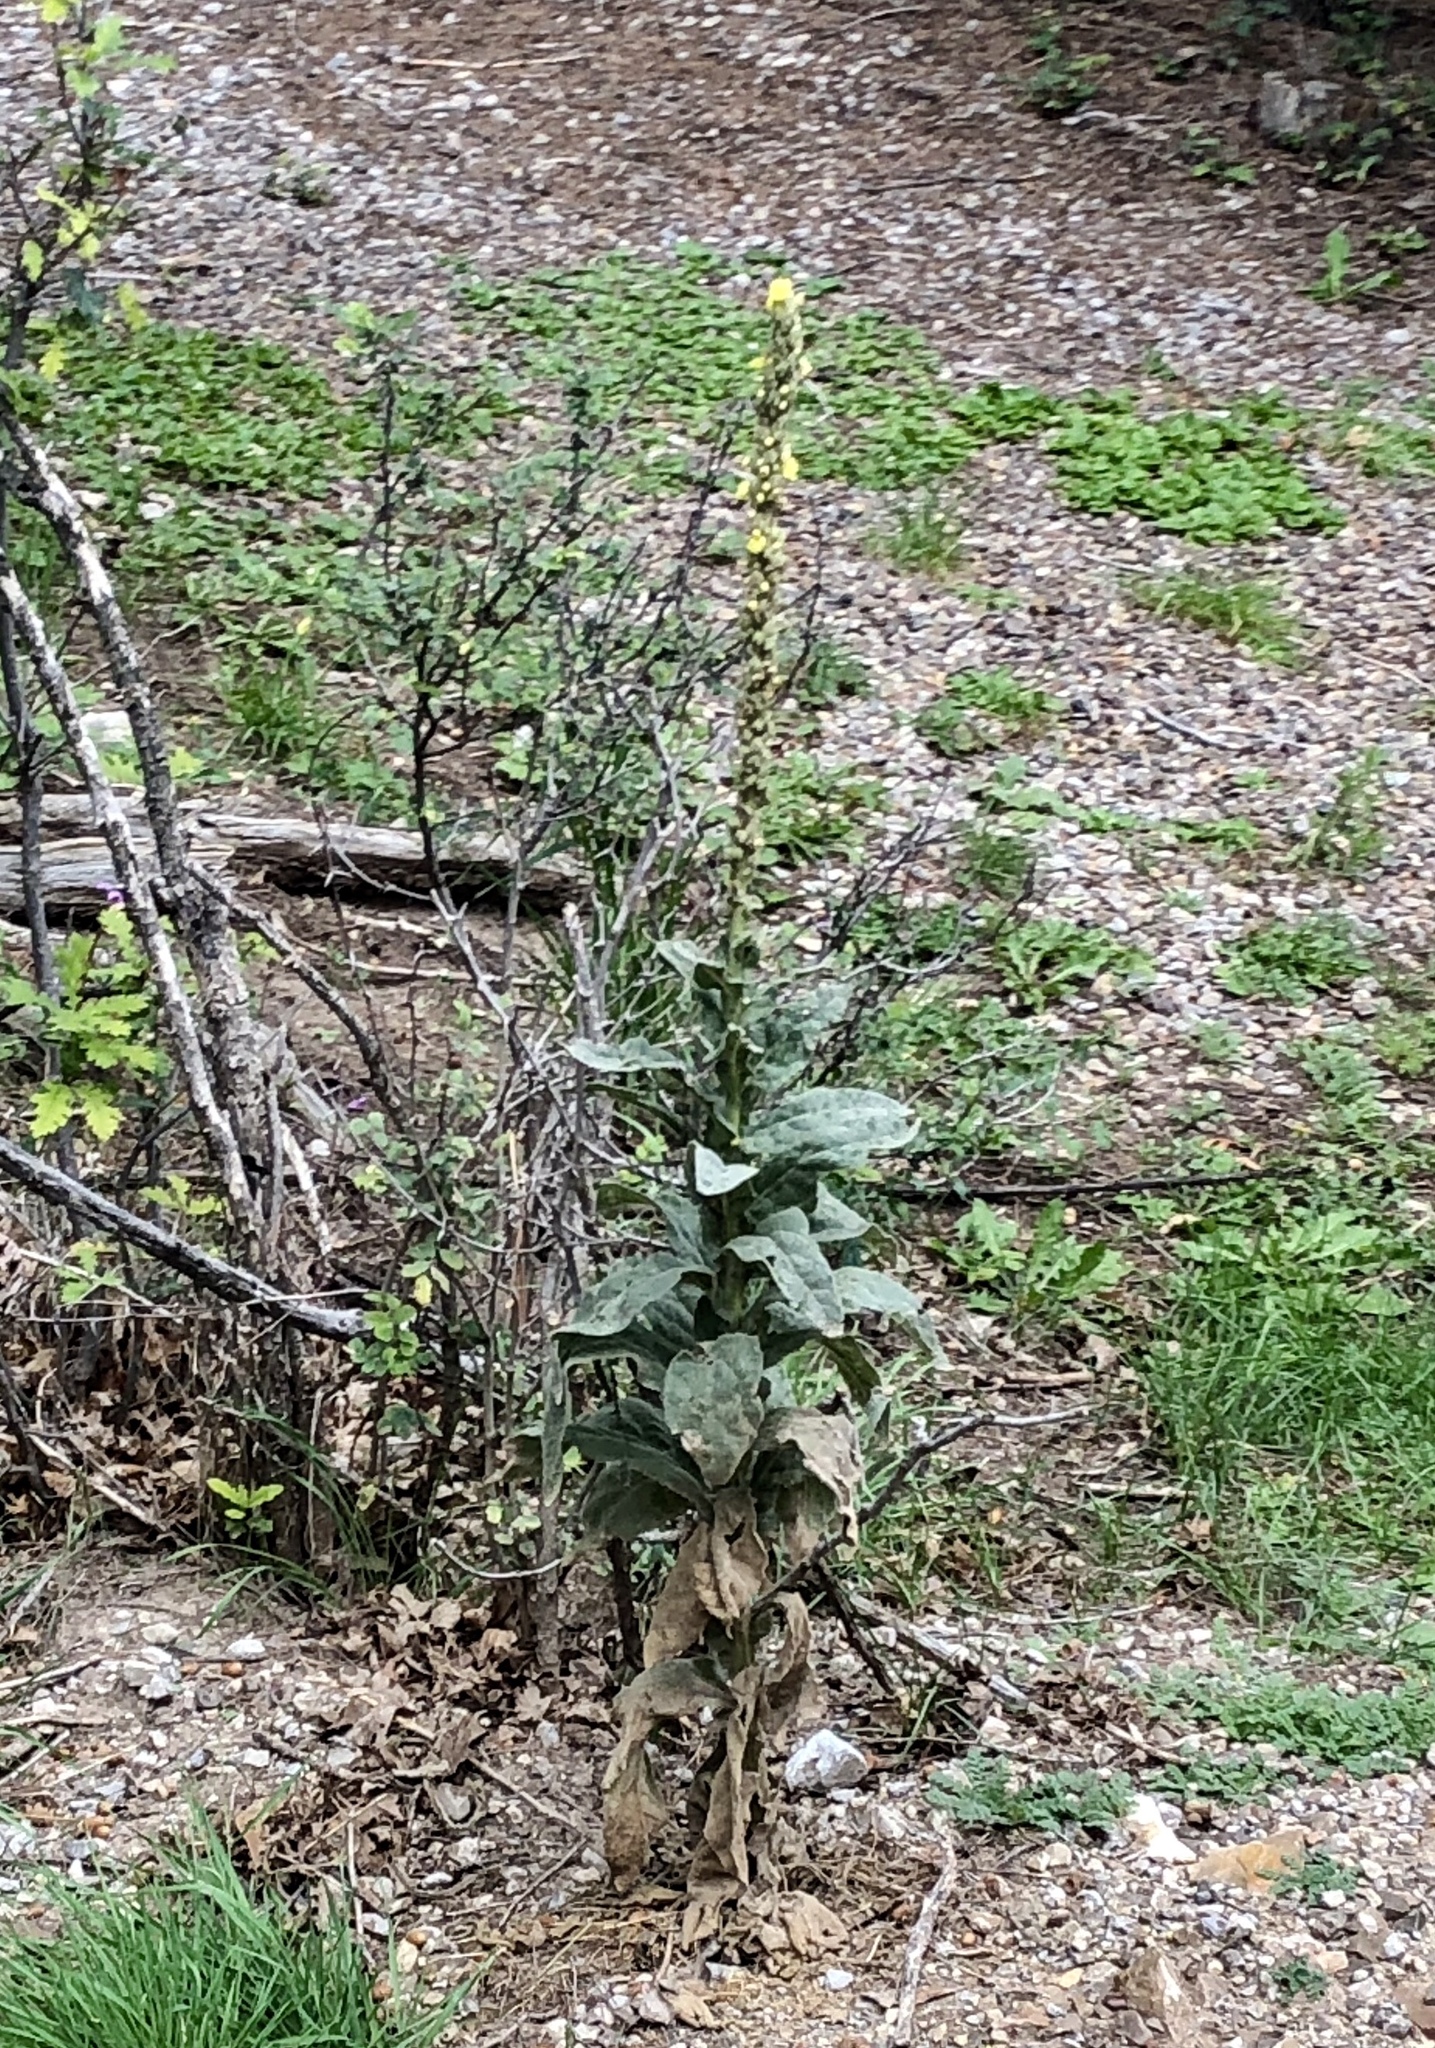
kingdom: Plantae
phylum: Tracheophyta
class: Magnoliopsida
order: Lamiales
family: Scrophulariaceae
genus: Verbascum
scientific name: Verbascum thapsus
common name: Common mullein
